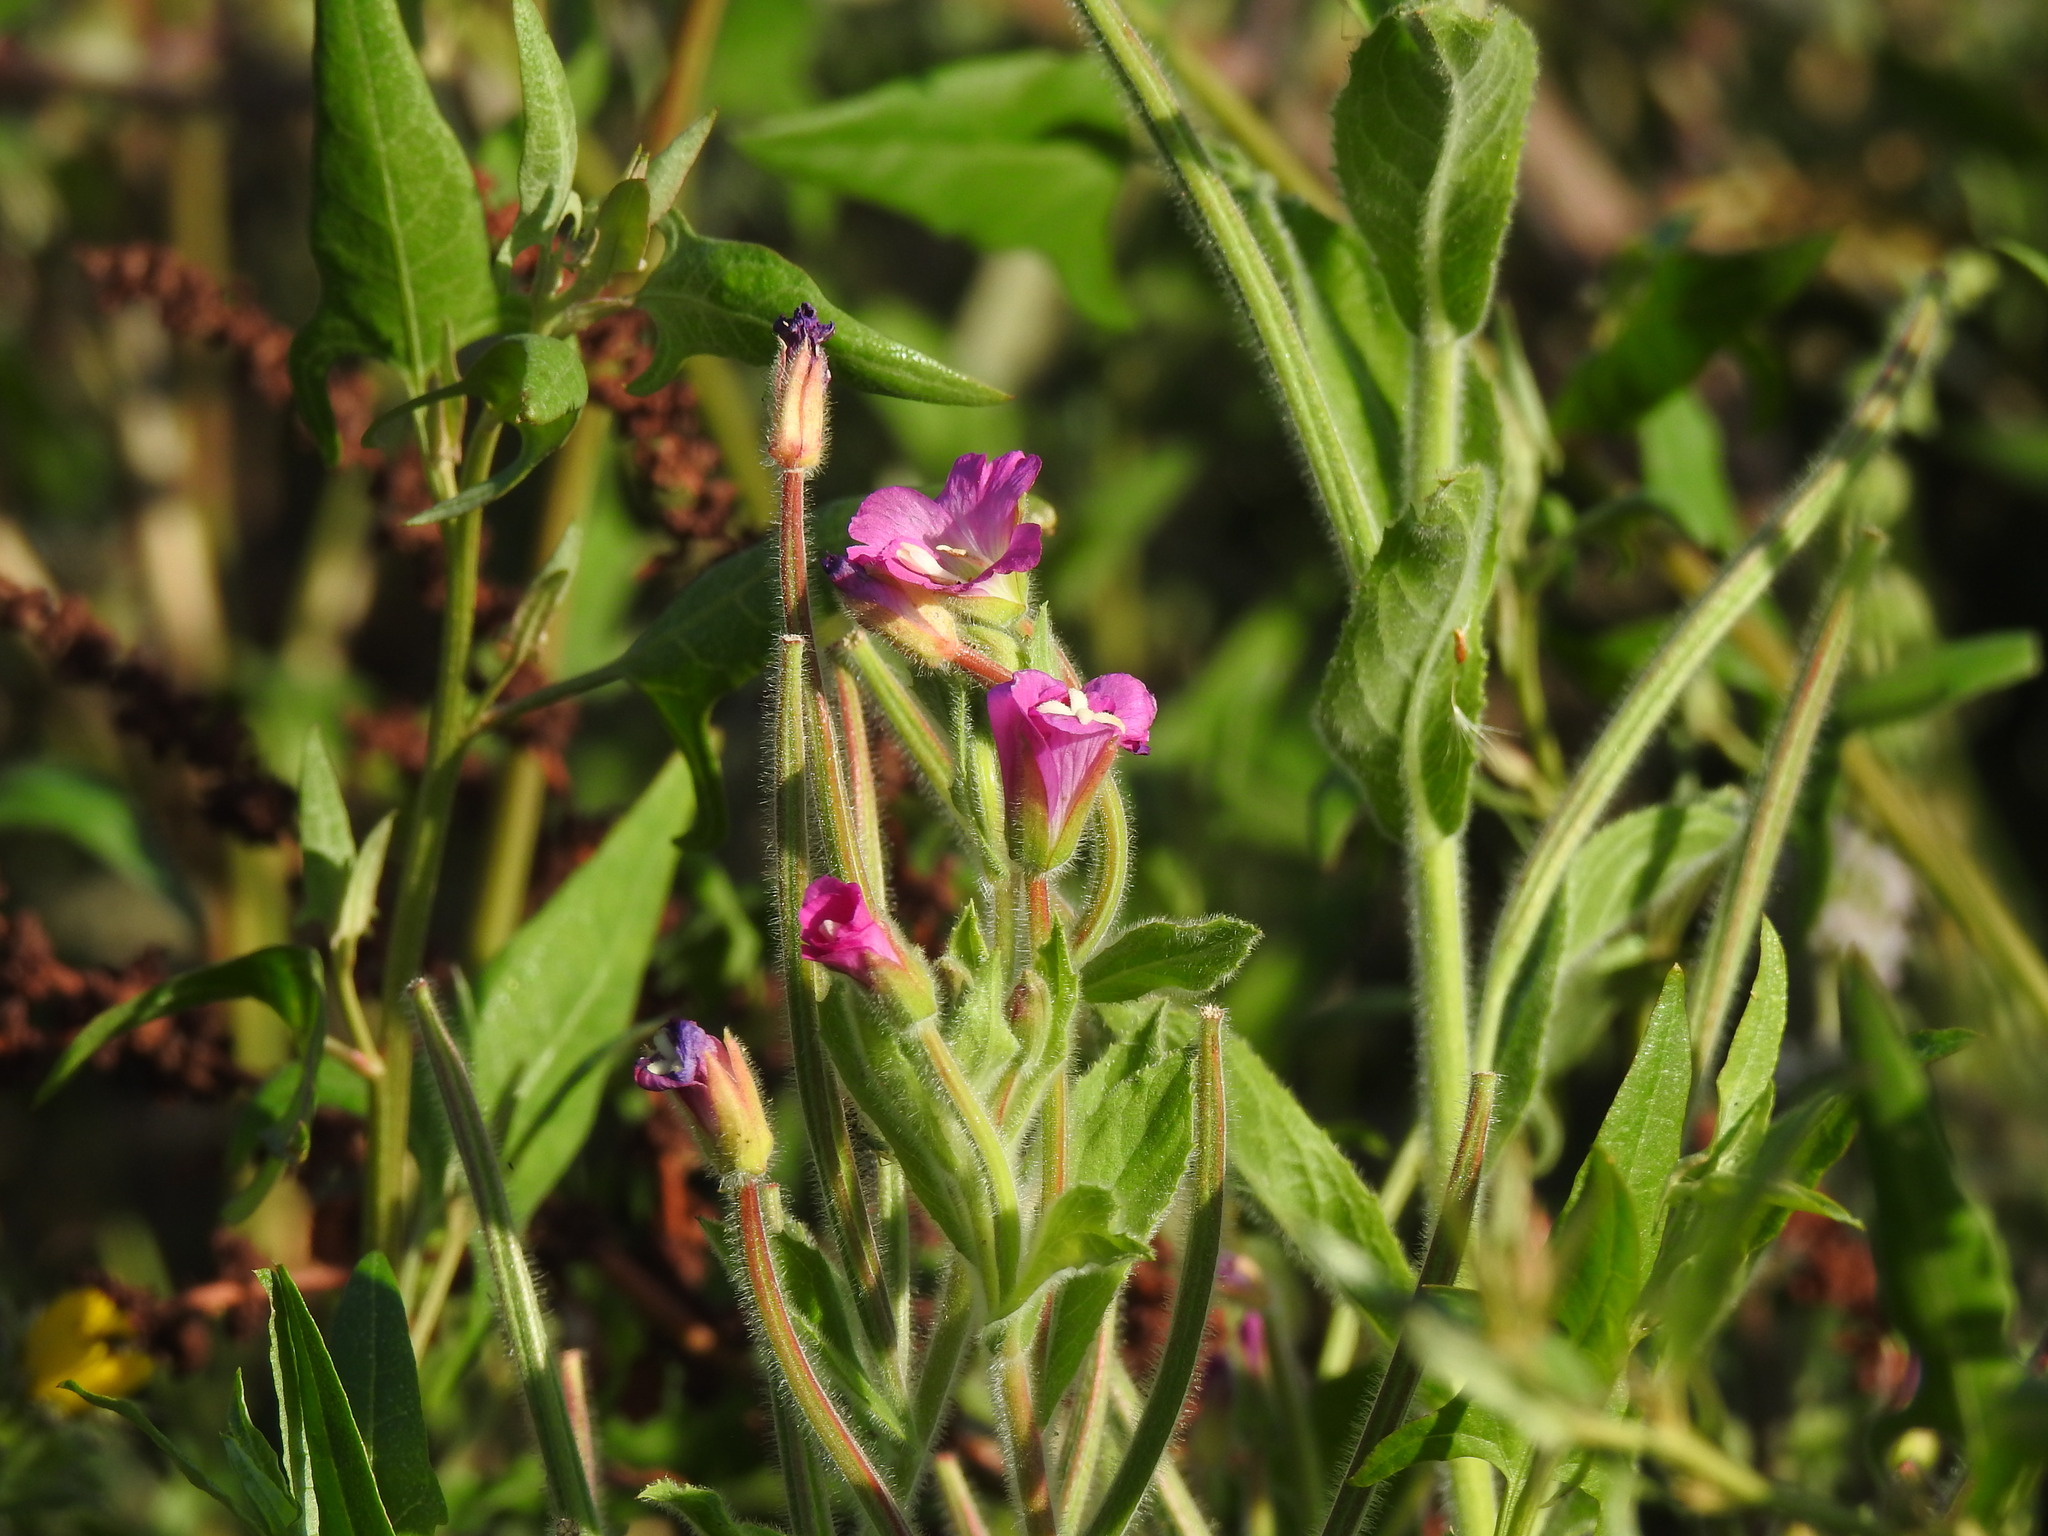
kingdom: Plantae
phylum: Tracheophyta
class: Magnoliopsida
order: Myrtales
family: Onagraceae
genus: Epilobium
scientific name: Epilobium hirsutum
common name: Great willowherb
